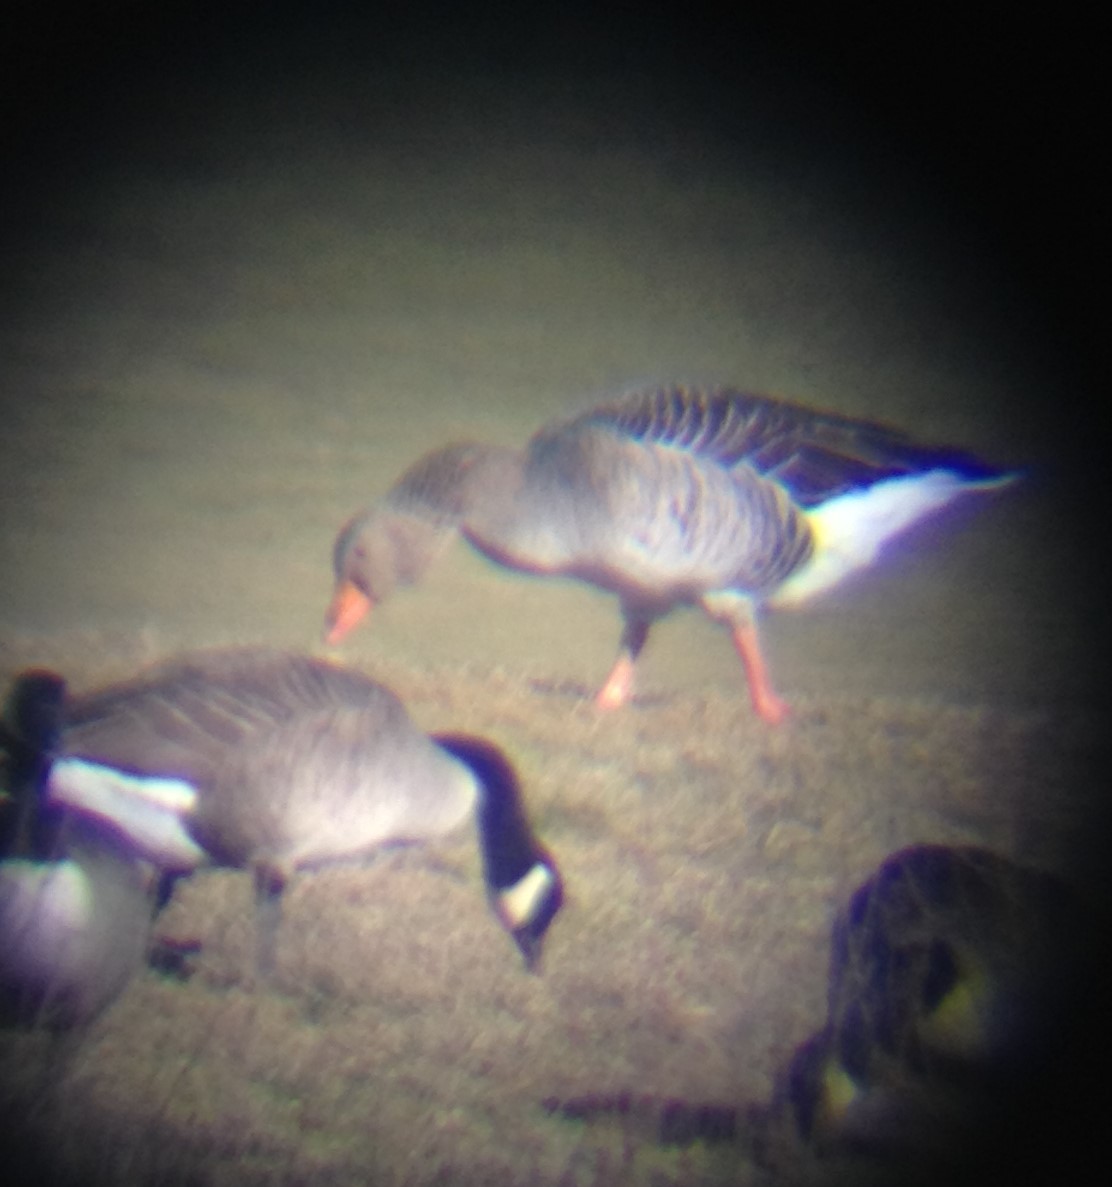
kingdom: Animalia
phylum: Chordata
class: Aves
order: Anseriformes
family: Anatidae
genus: Anser
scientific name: Anser anser
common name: Greylag goose
